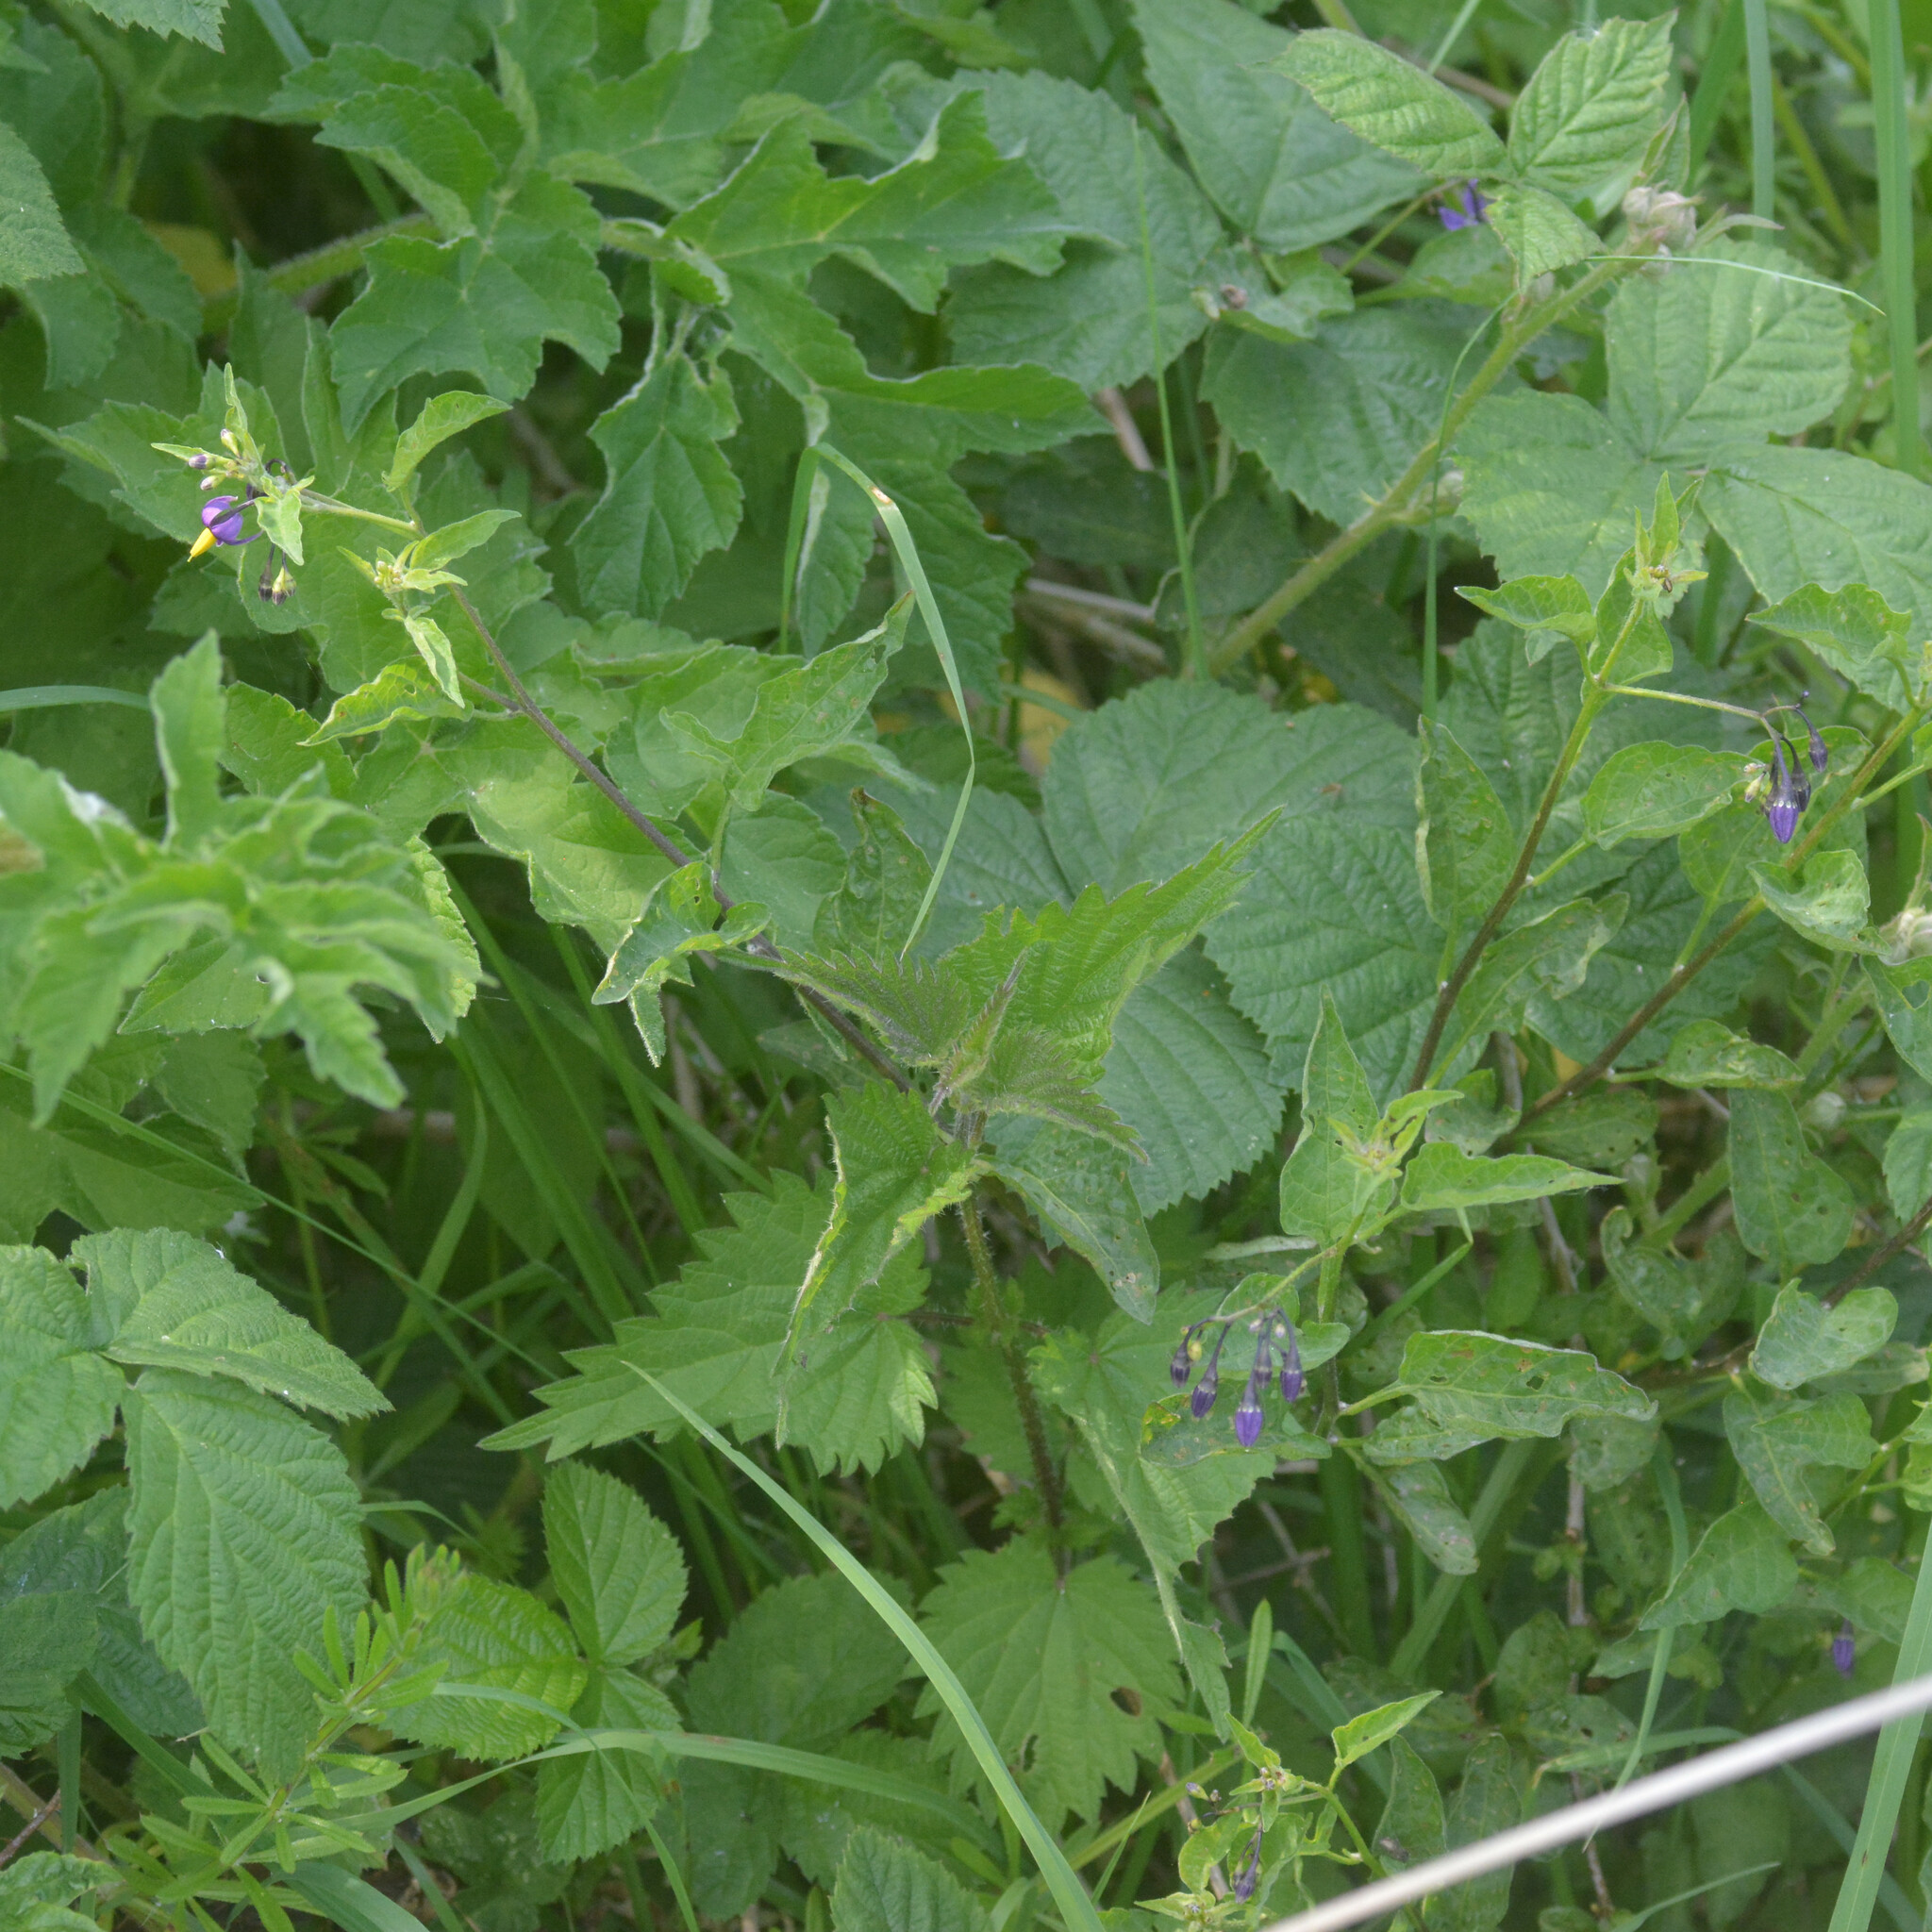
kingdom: Plantae
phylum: Tracheophyta
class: Magnoliopsida
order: Solanales
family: Solanaceae
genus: Solanum
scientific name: Solanum dulcamara
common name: Climbing nightshade
